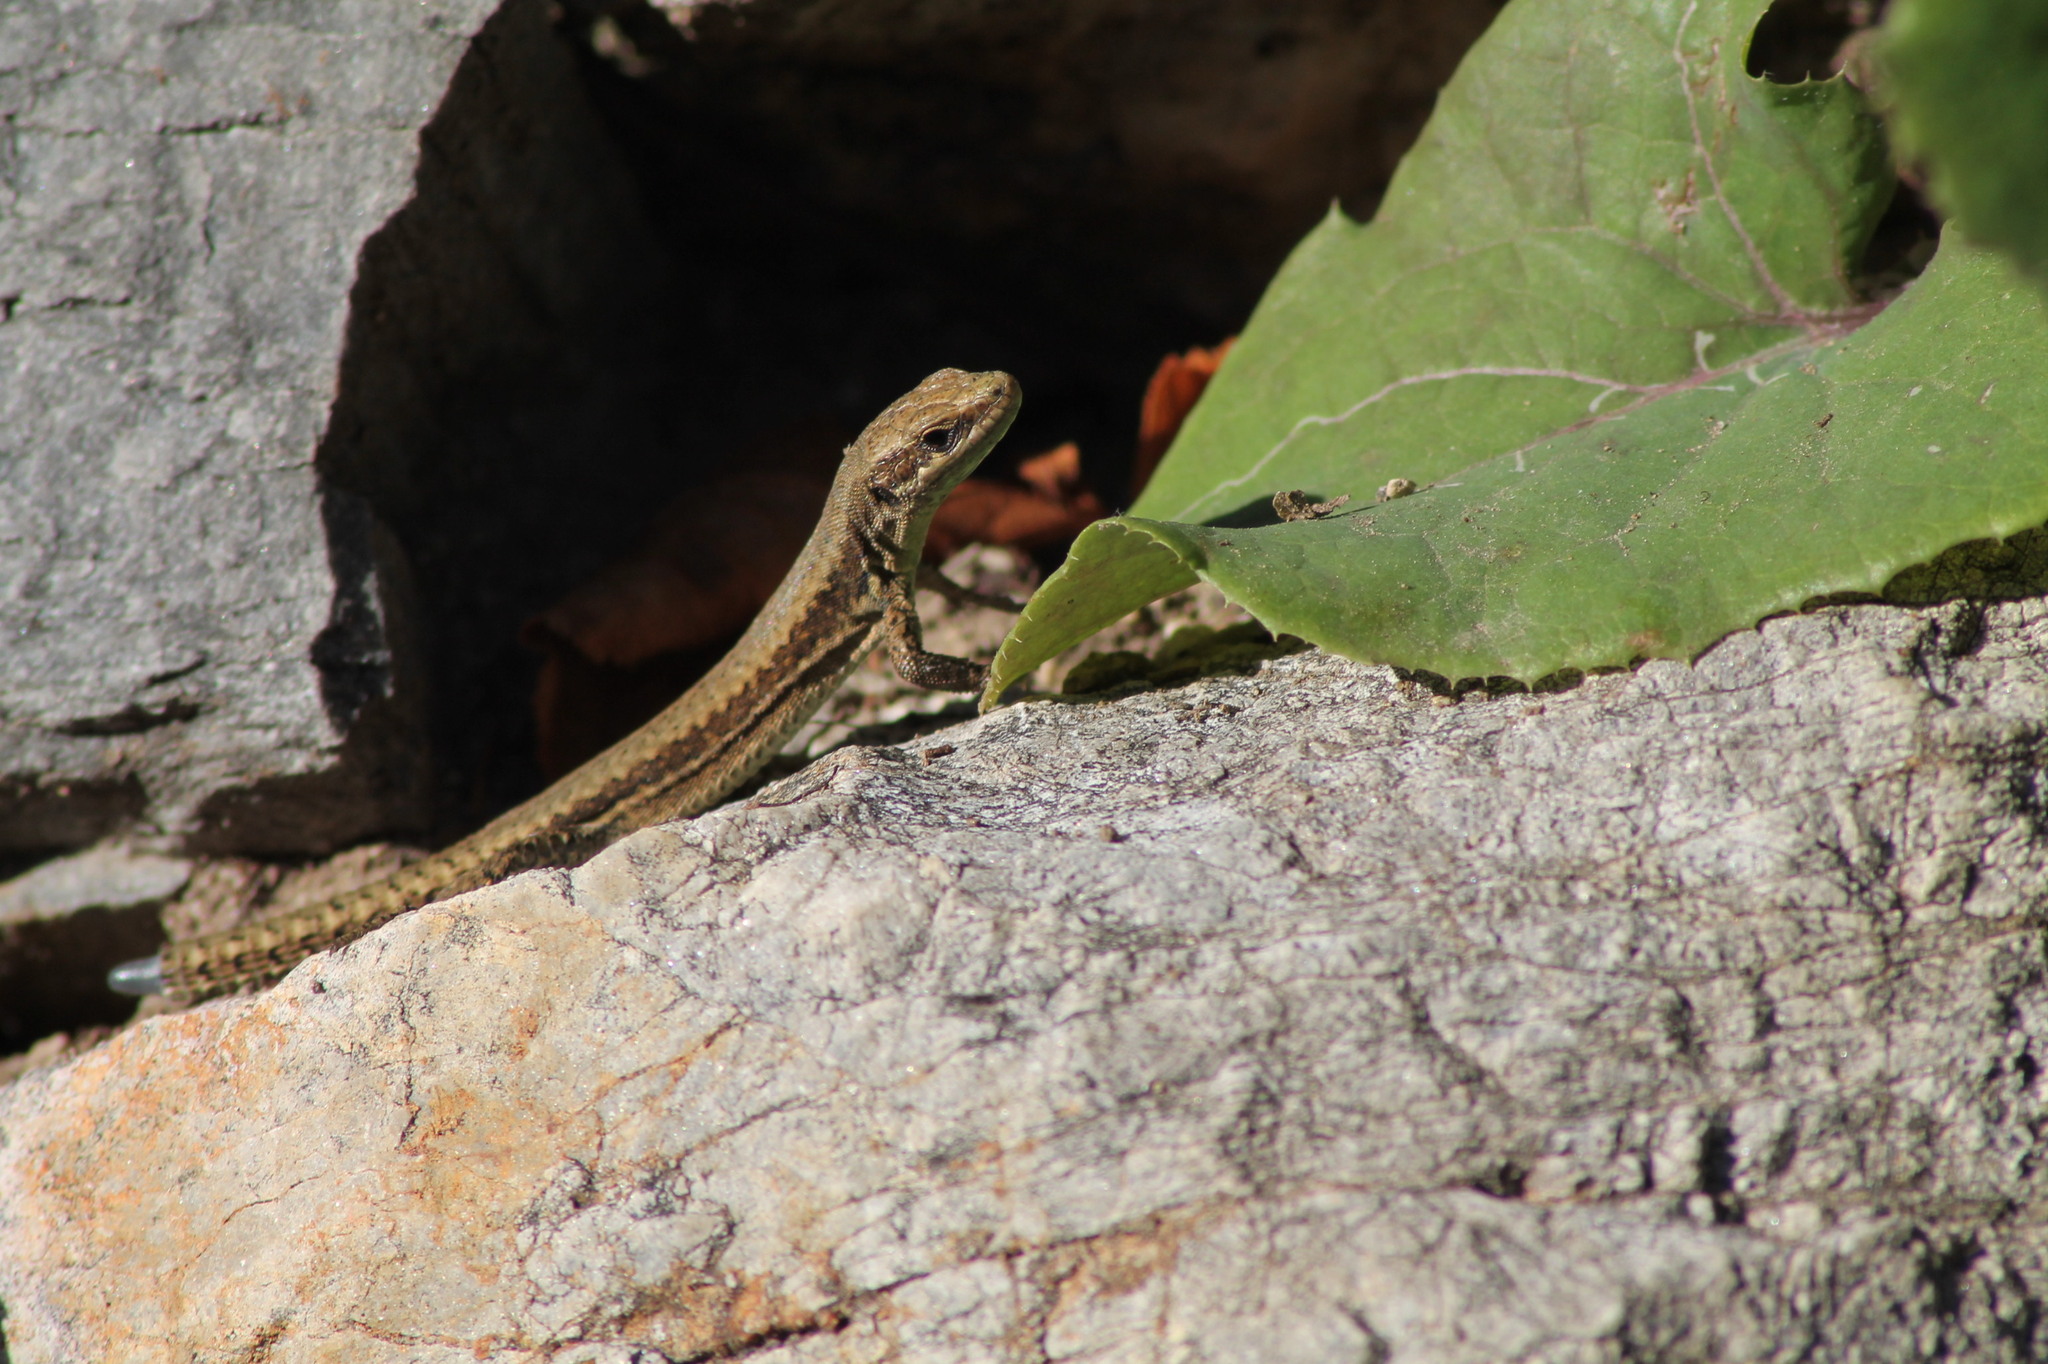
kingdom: Animalia
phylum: Chordata
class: Squamata
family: Lacertidae
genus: Podarcis
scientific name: Podarcis muralis
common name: Common wall lizard
